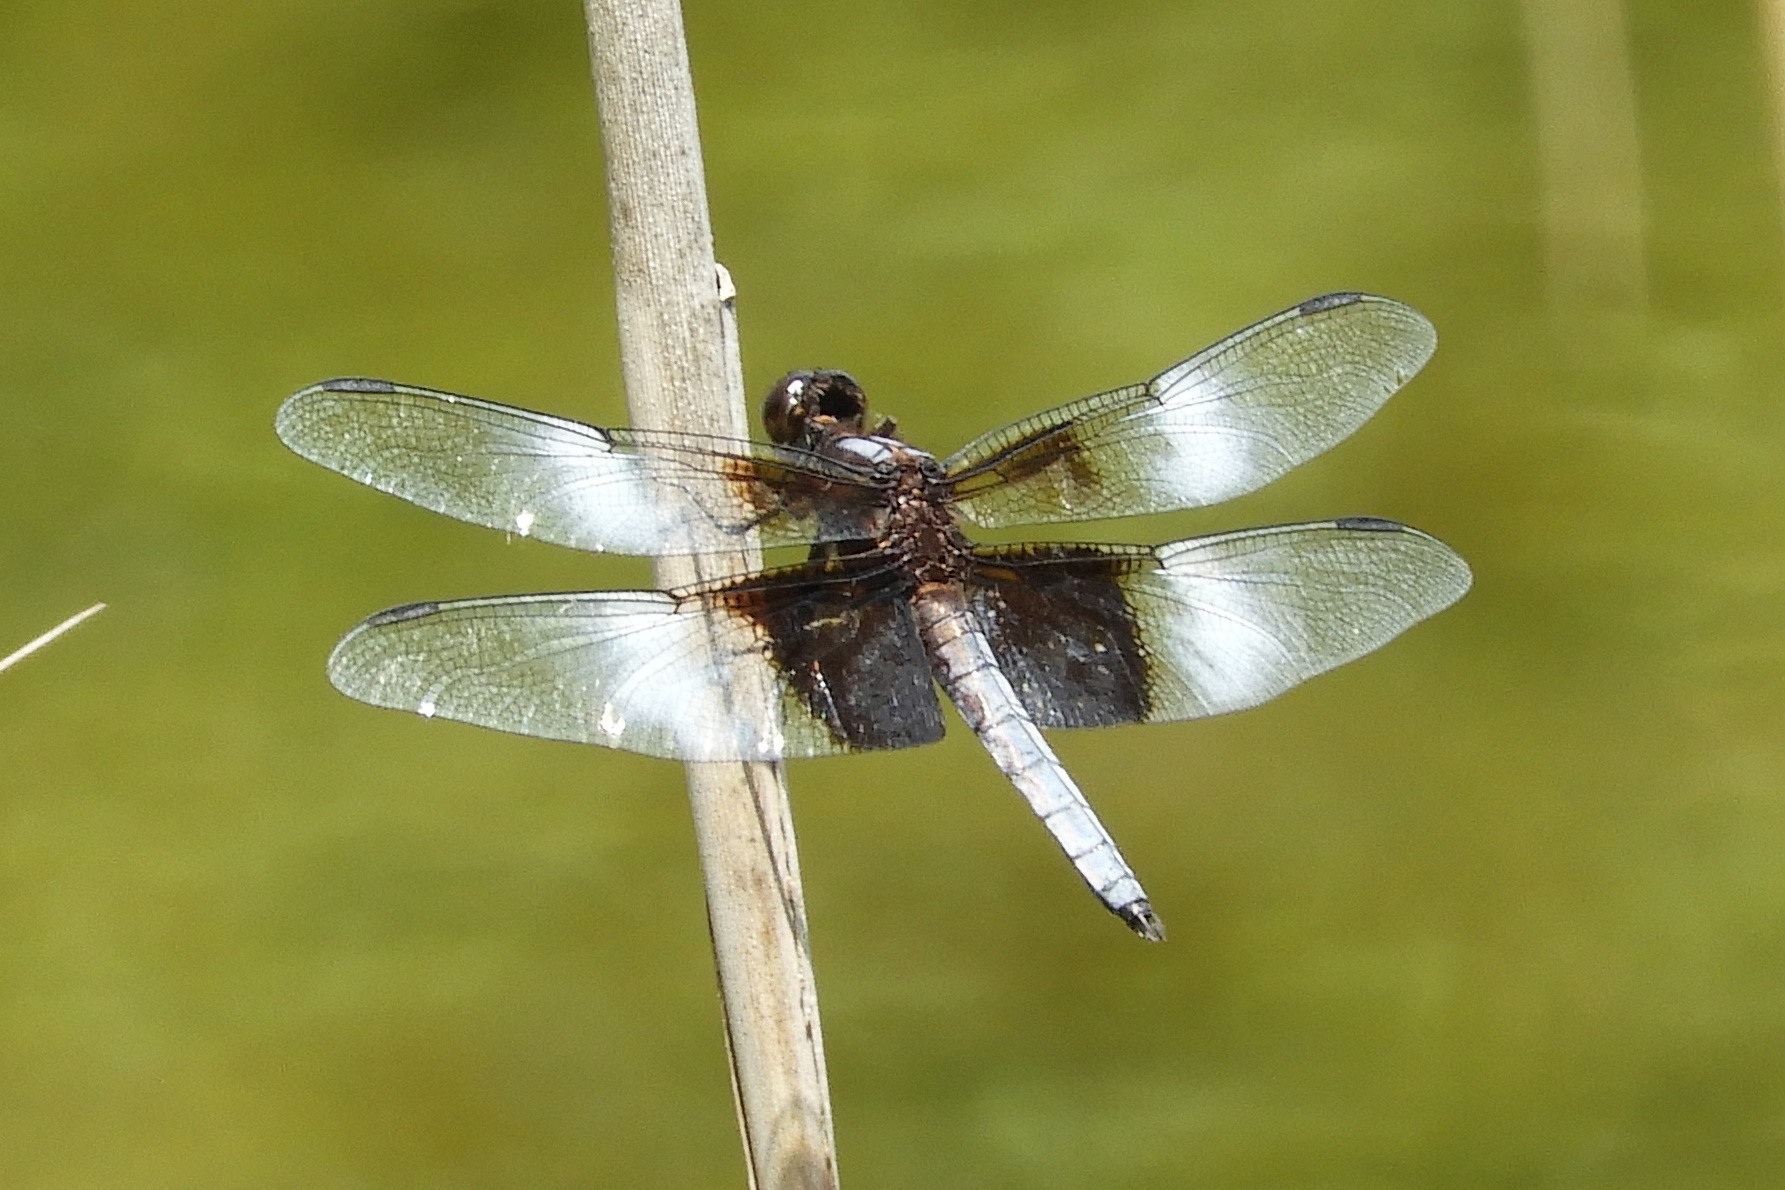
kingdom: Animalia
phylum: Arthropoda
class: Insecta
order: Odonata
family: Libellulidae
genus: Libellula
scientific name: Libellula luctuosa
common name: Widow skimmer
